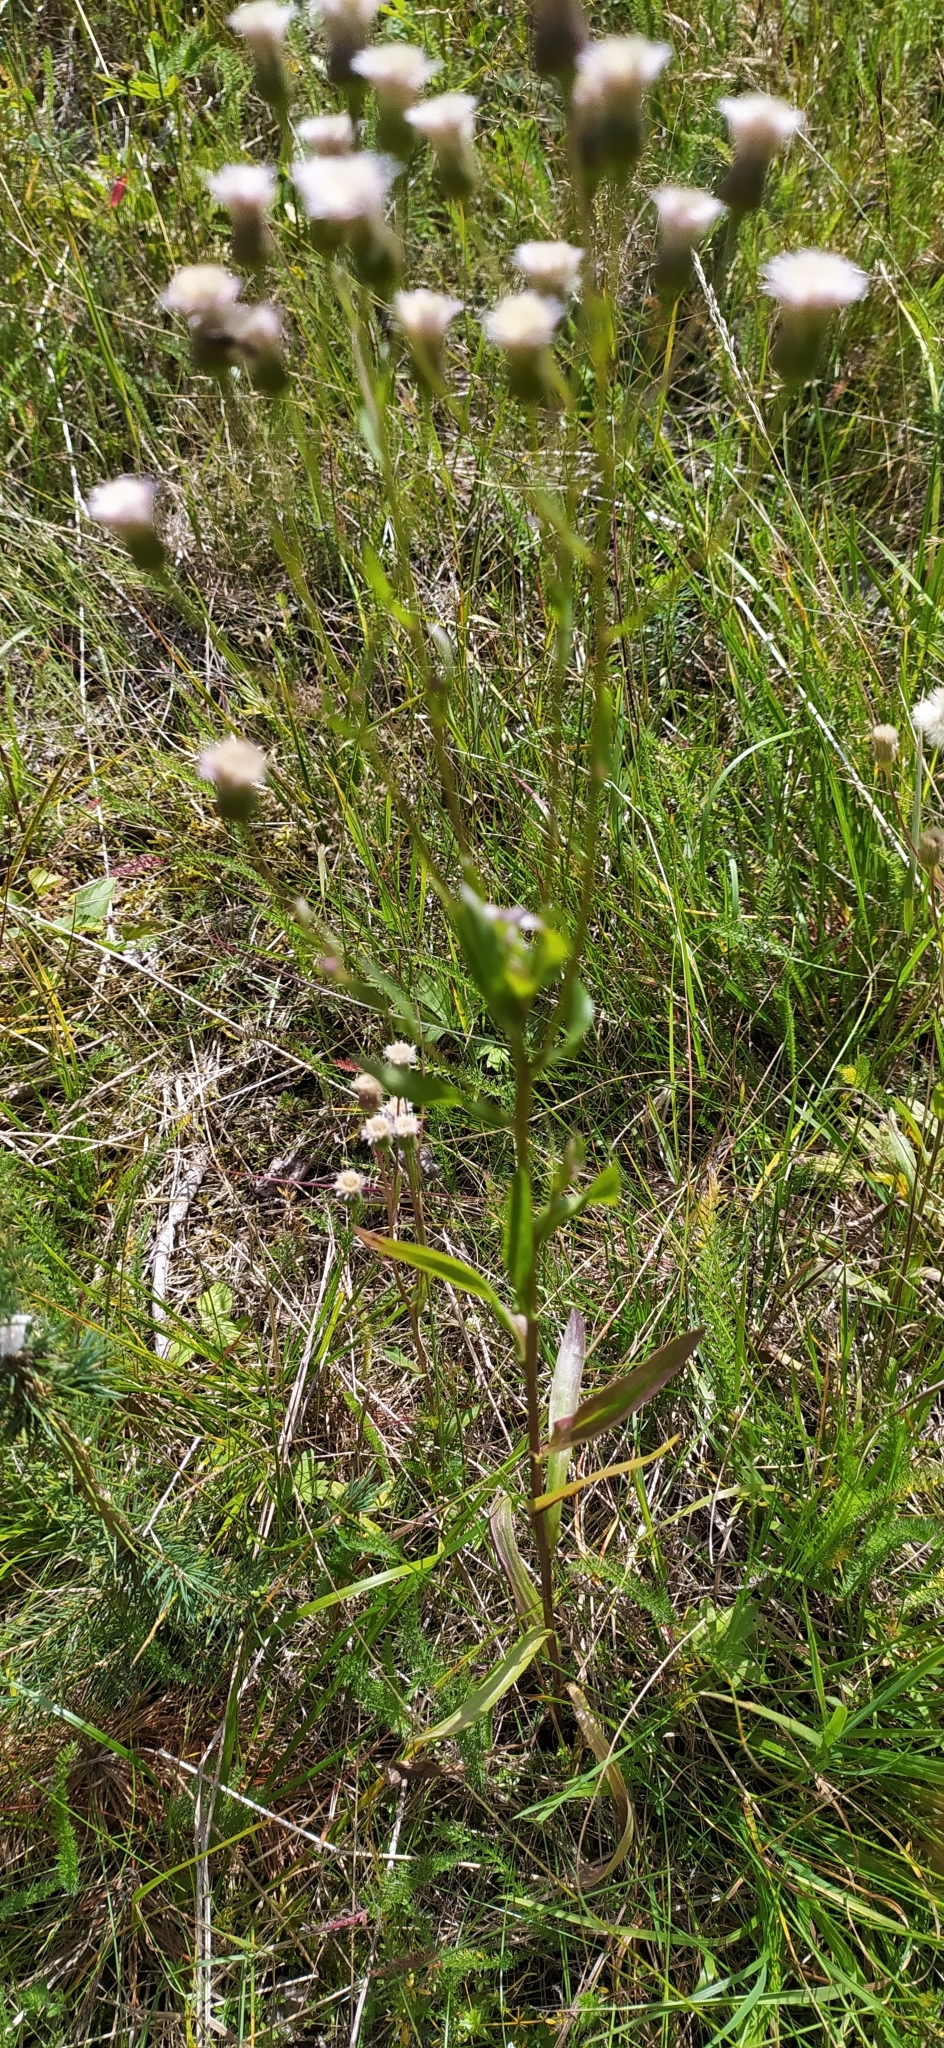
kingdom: Plantae
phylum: Tracheophyta
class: Magnoliopsida
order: Asterales
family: Asteraceae
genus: Erigeron
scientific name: Erigeron acris
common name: Blue fleabane
